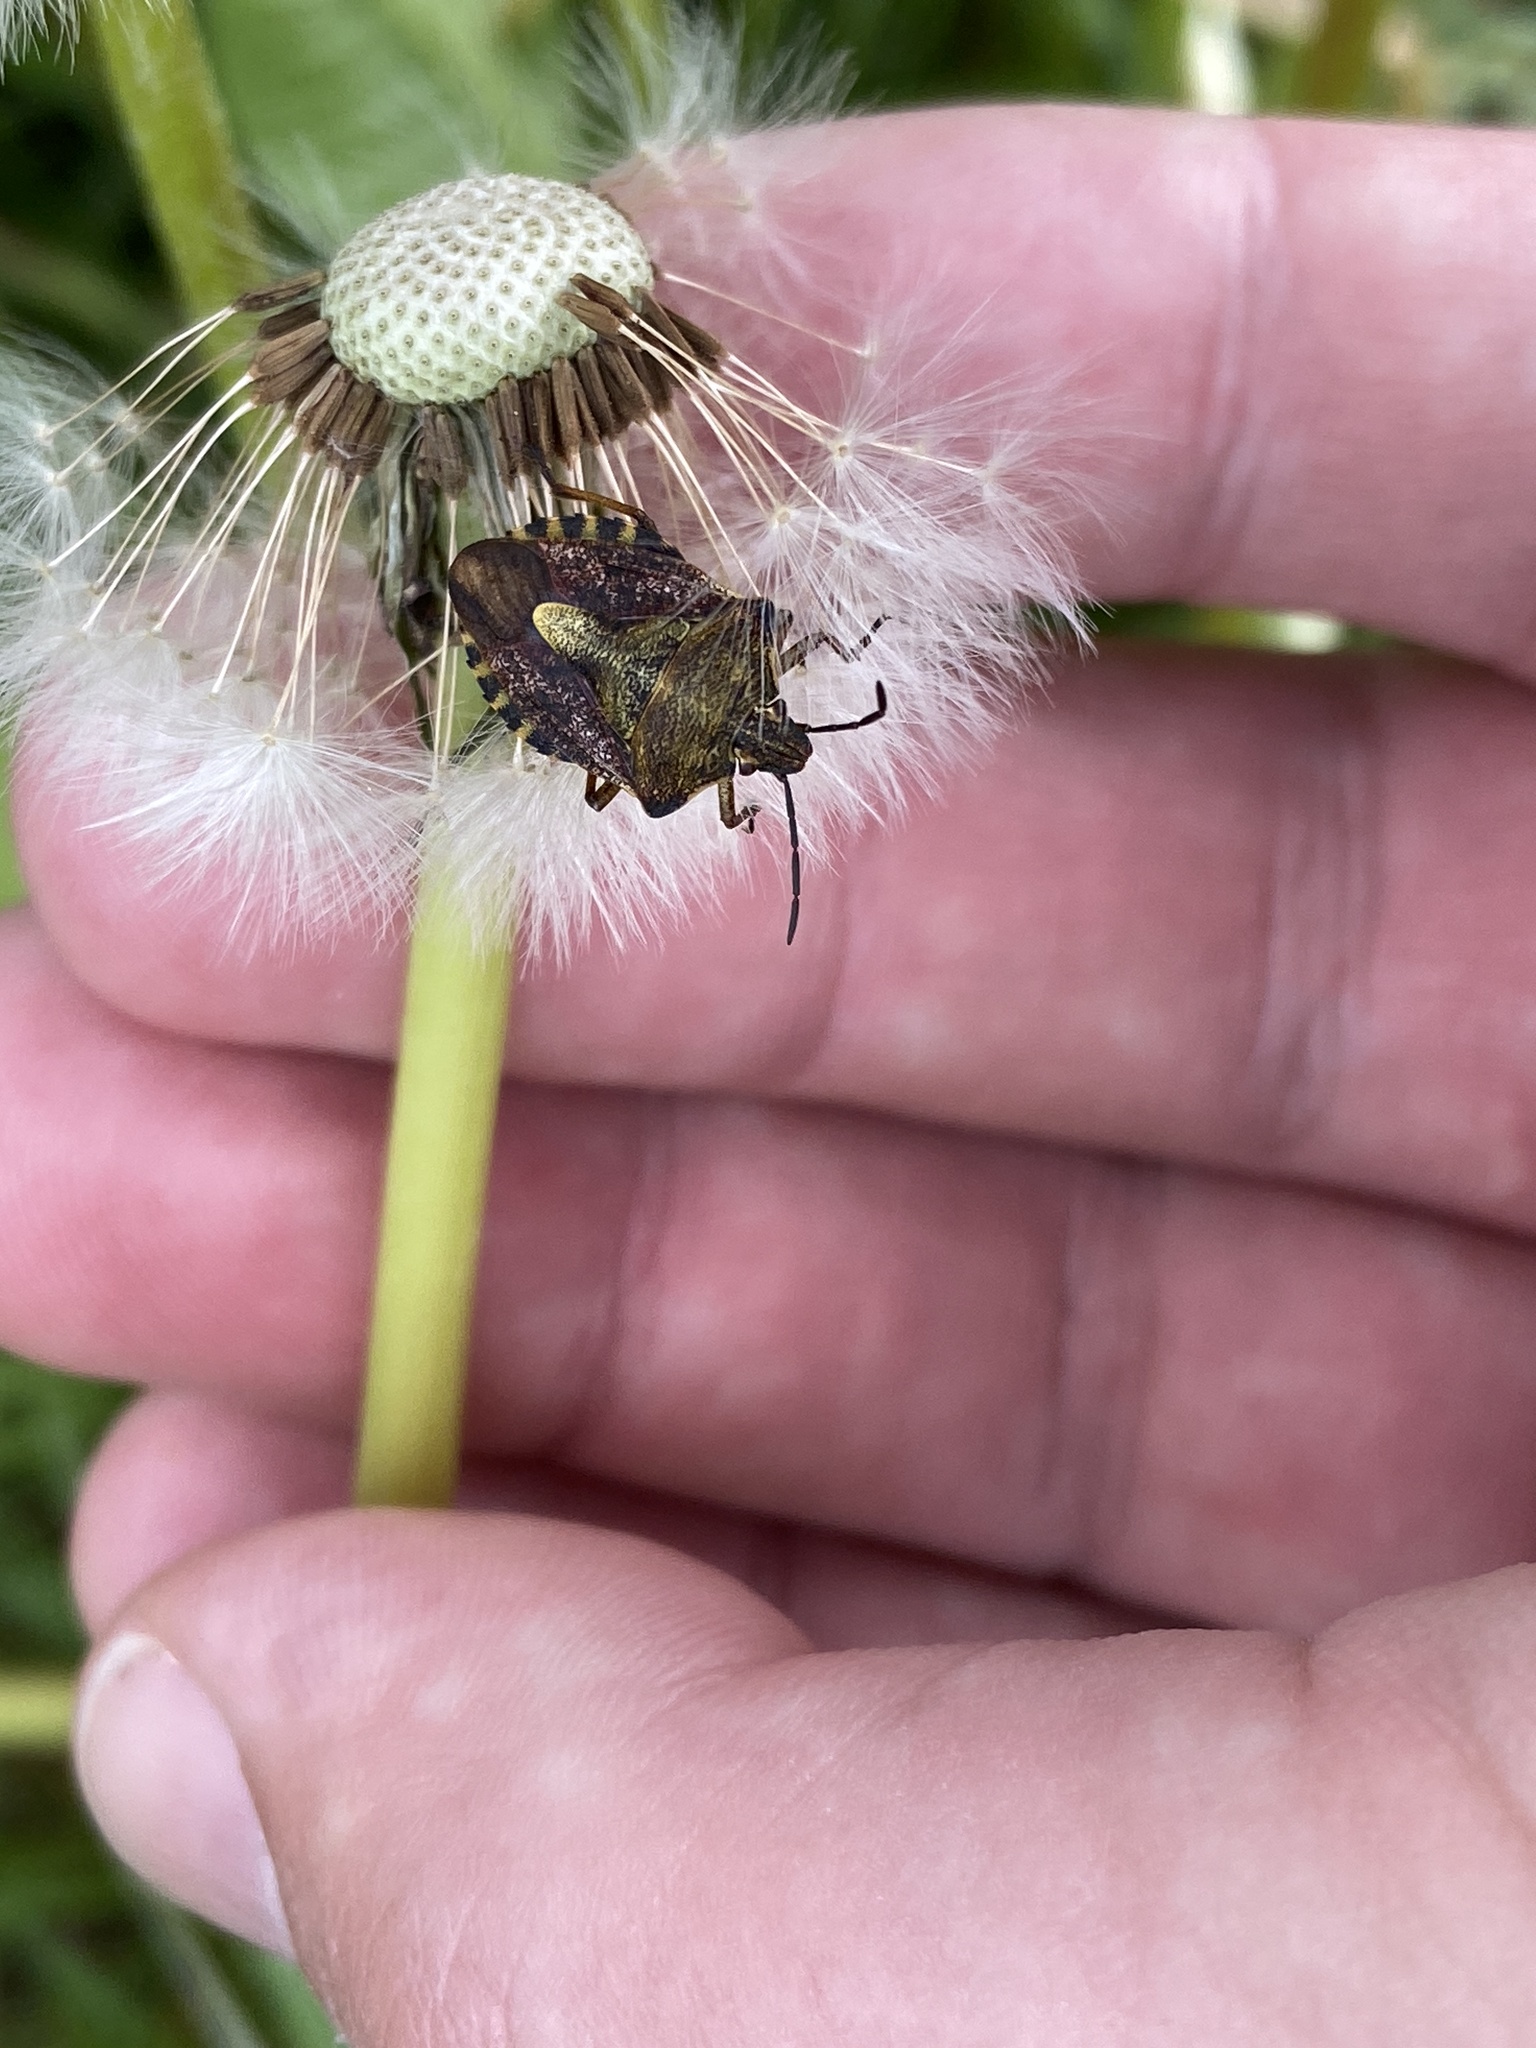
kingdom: Animalia
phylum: Arthropoda
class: Insecta
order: Hemiptera
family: Pentatomidae
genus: Carpocoris
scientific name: Carpocoris purpureipennis
